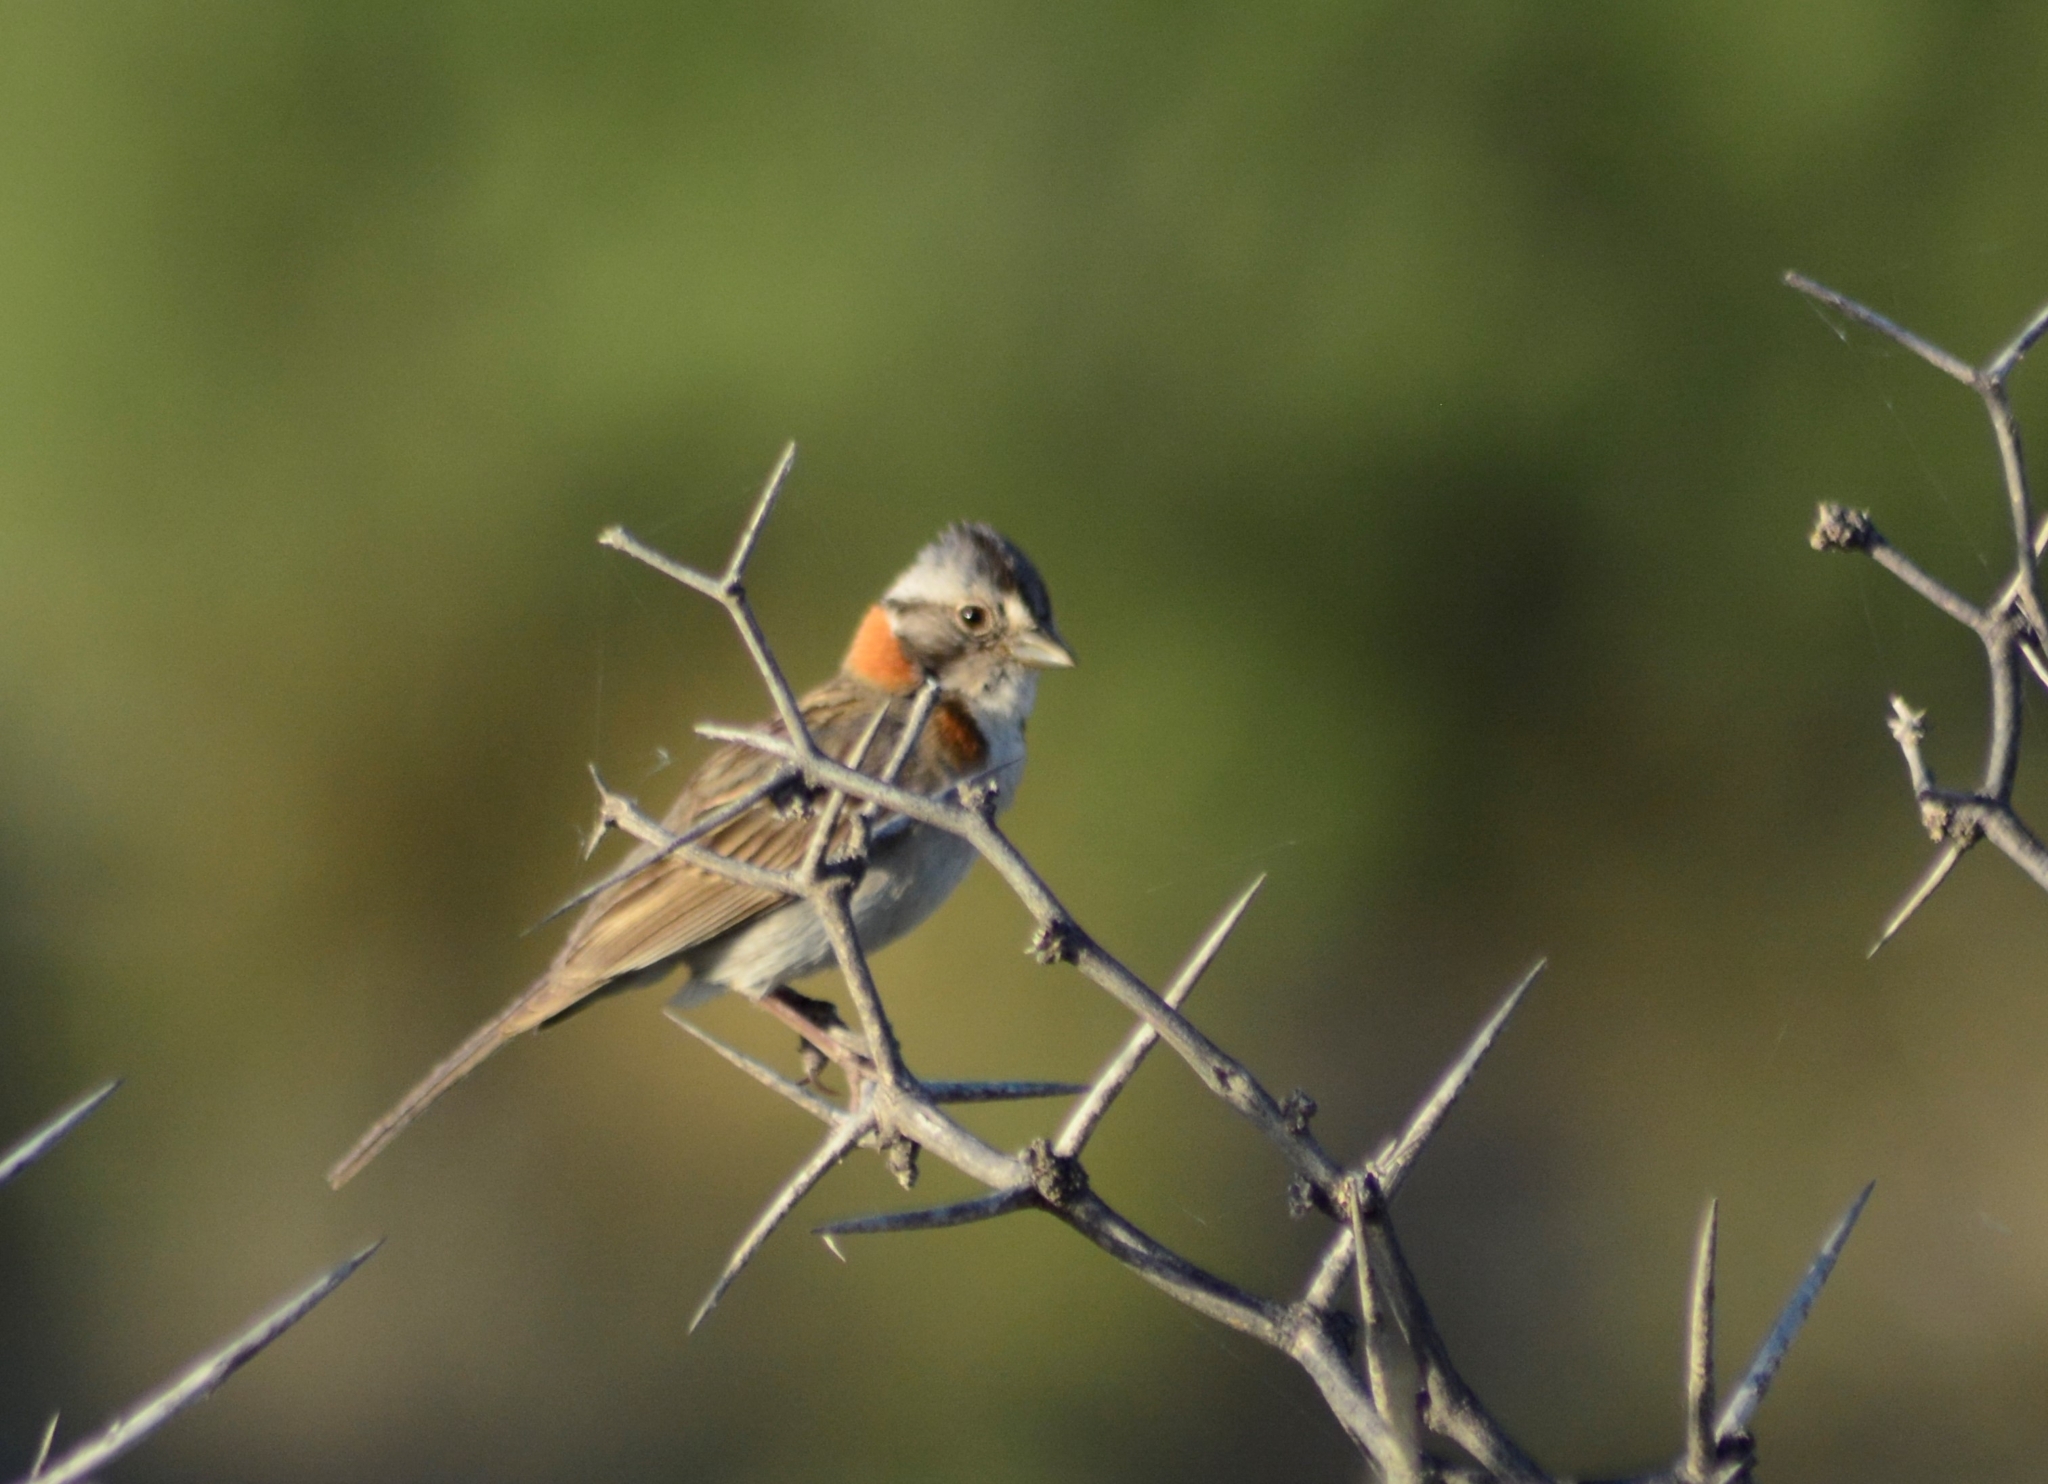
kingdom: Animalia
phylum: Chordata
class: Aves
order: Passeriformes
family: Passerellidae
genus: Zonotrichia
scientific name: Zonotrichia capensis
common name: Rufous-collared sparrow
